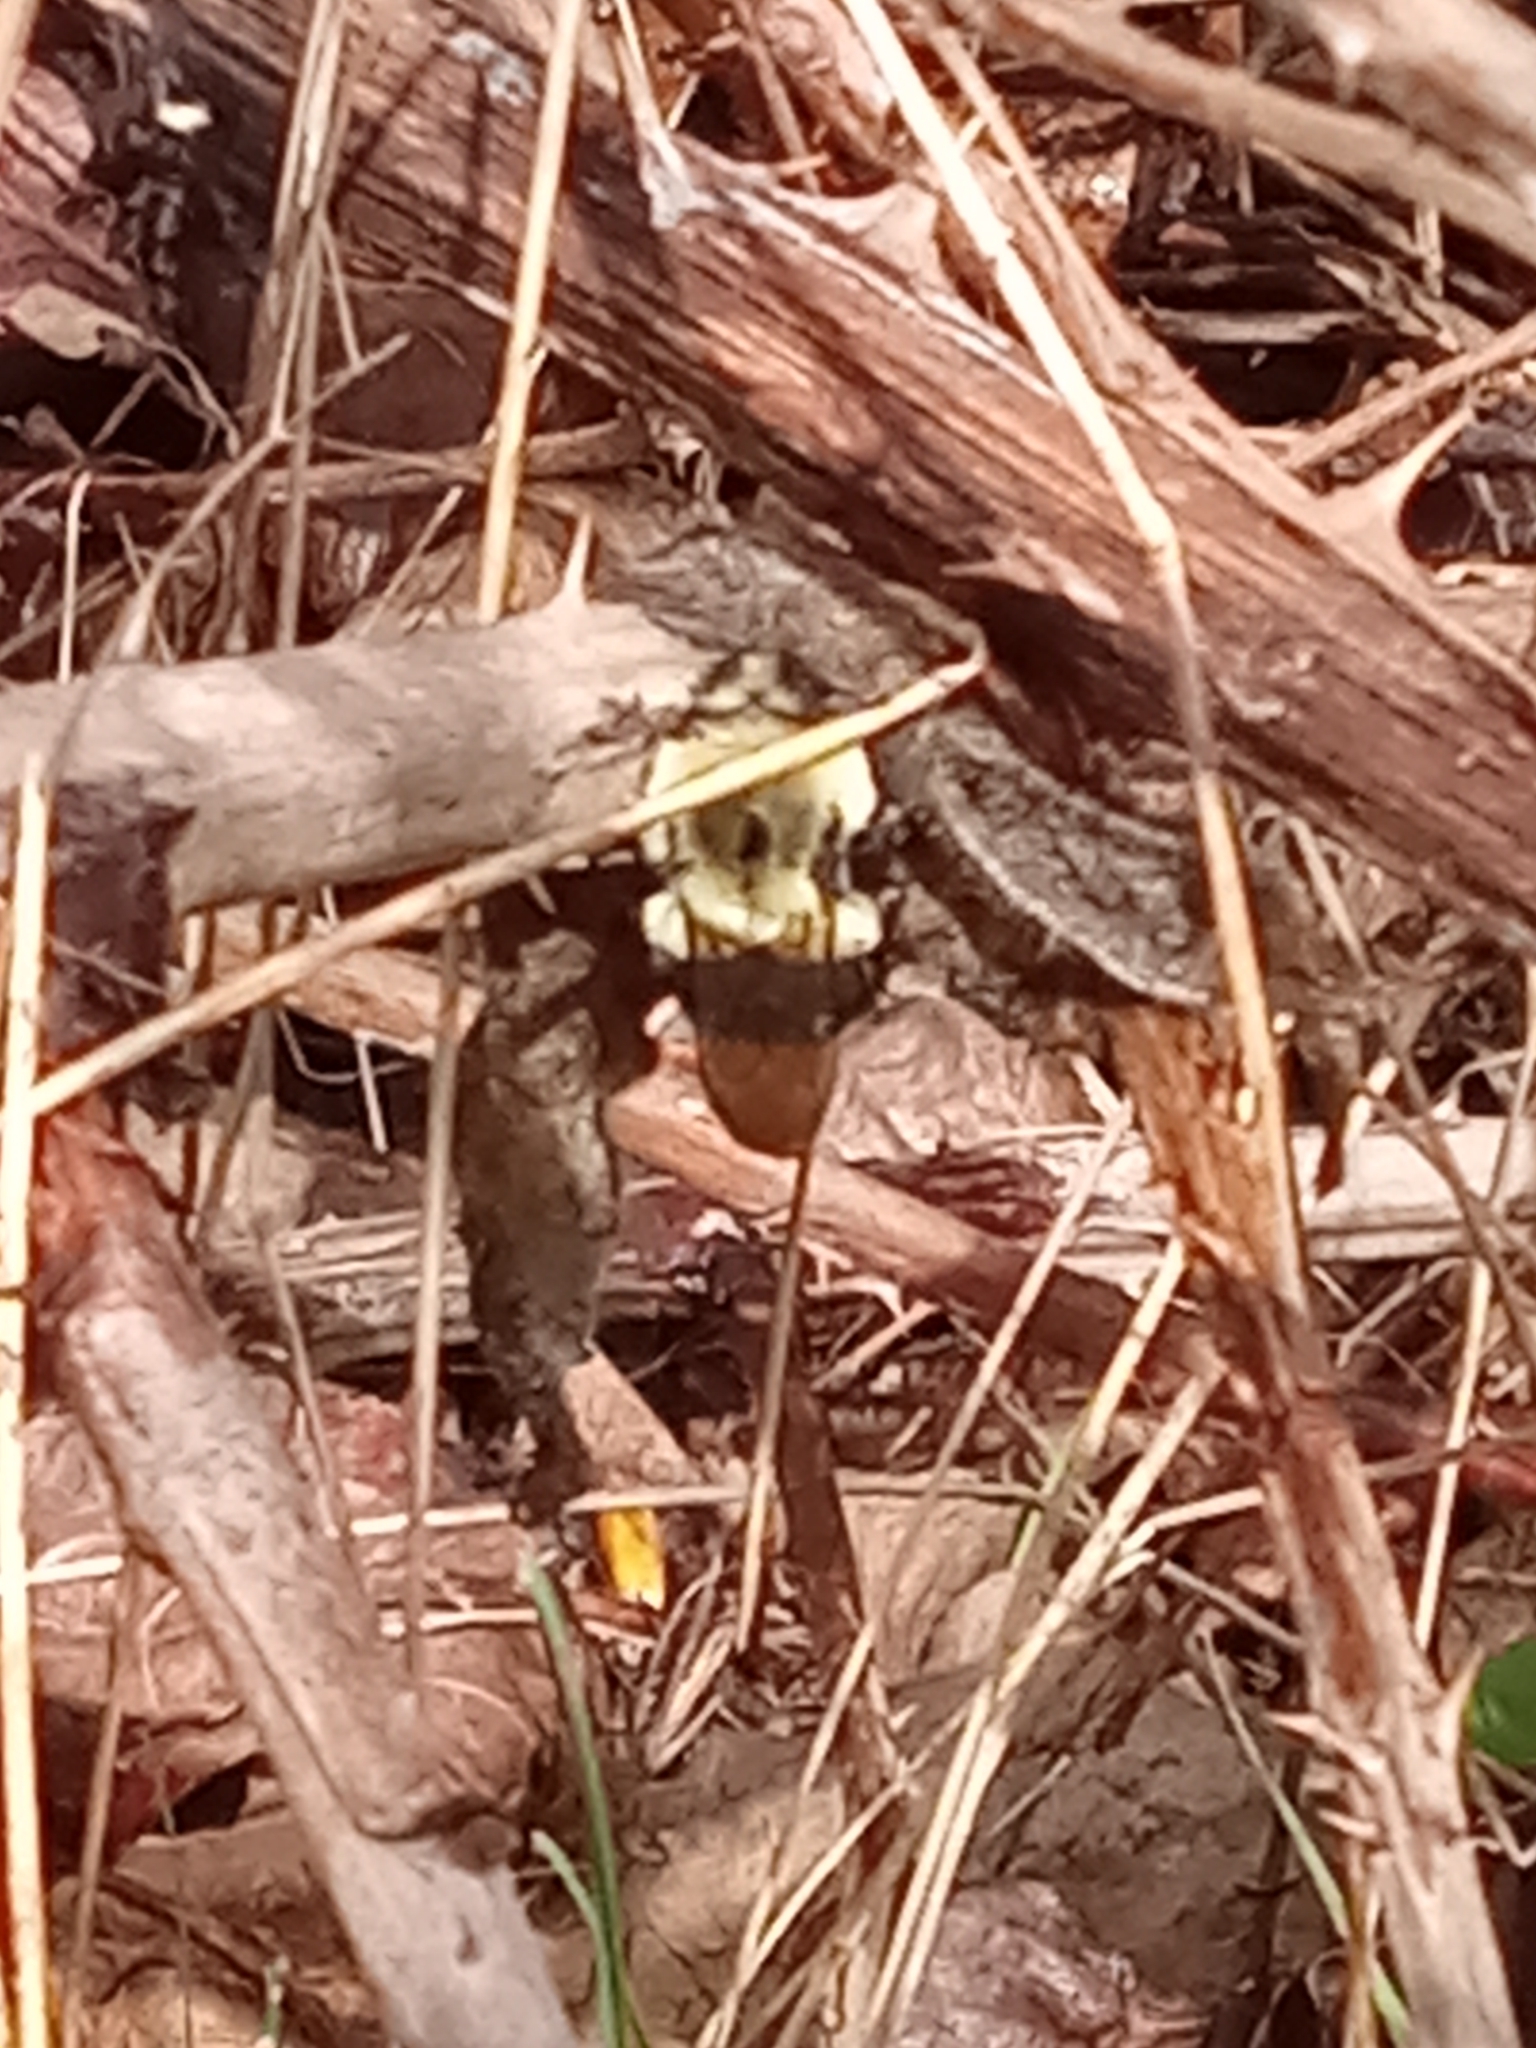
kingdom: Animalia
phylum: Arthropoda
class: Insecta
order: Hymenoptera
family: Apidae
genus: Bombus
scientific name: Bombus impatiens
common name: Common eastern bumble bee
